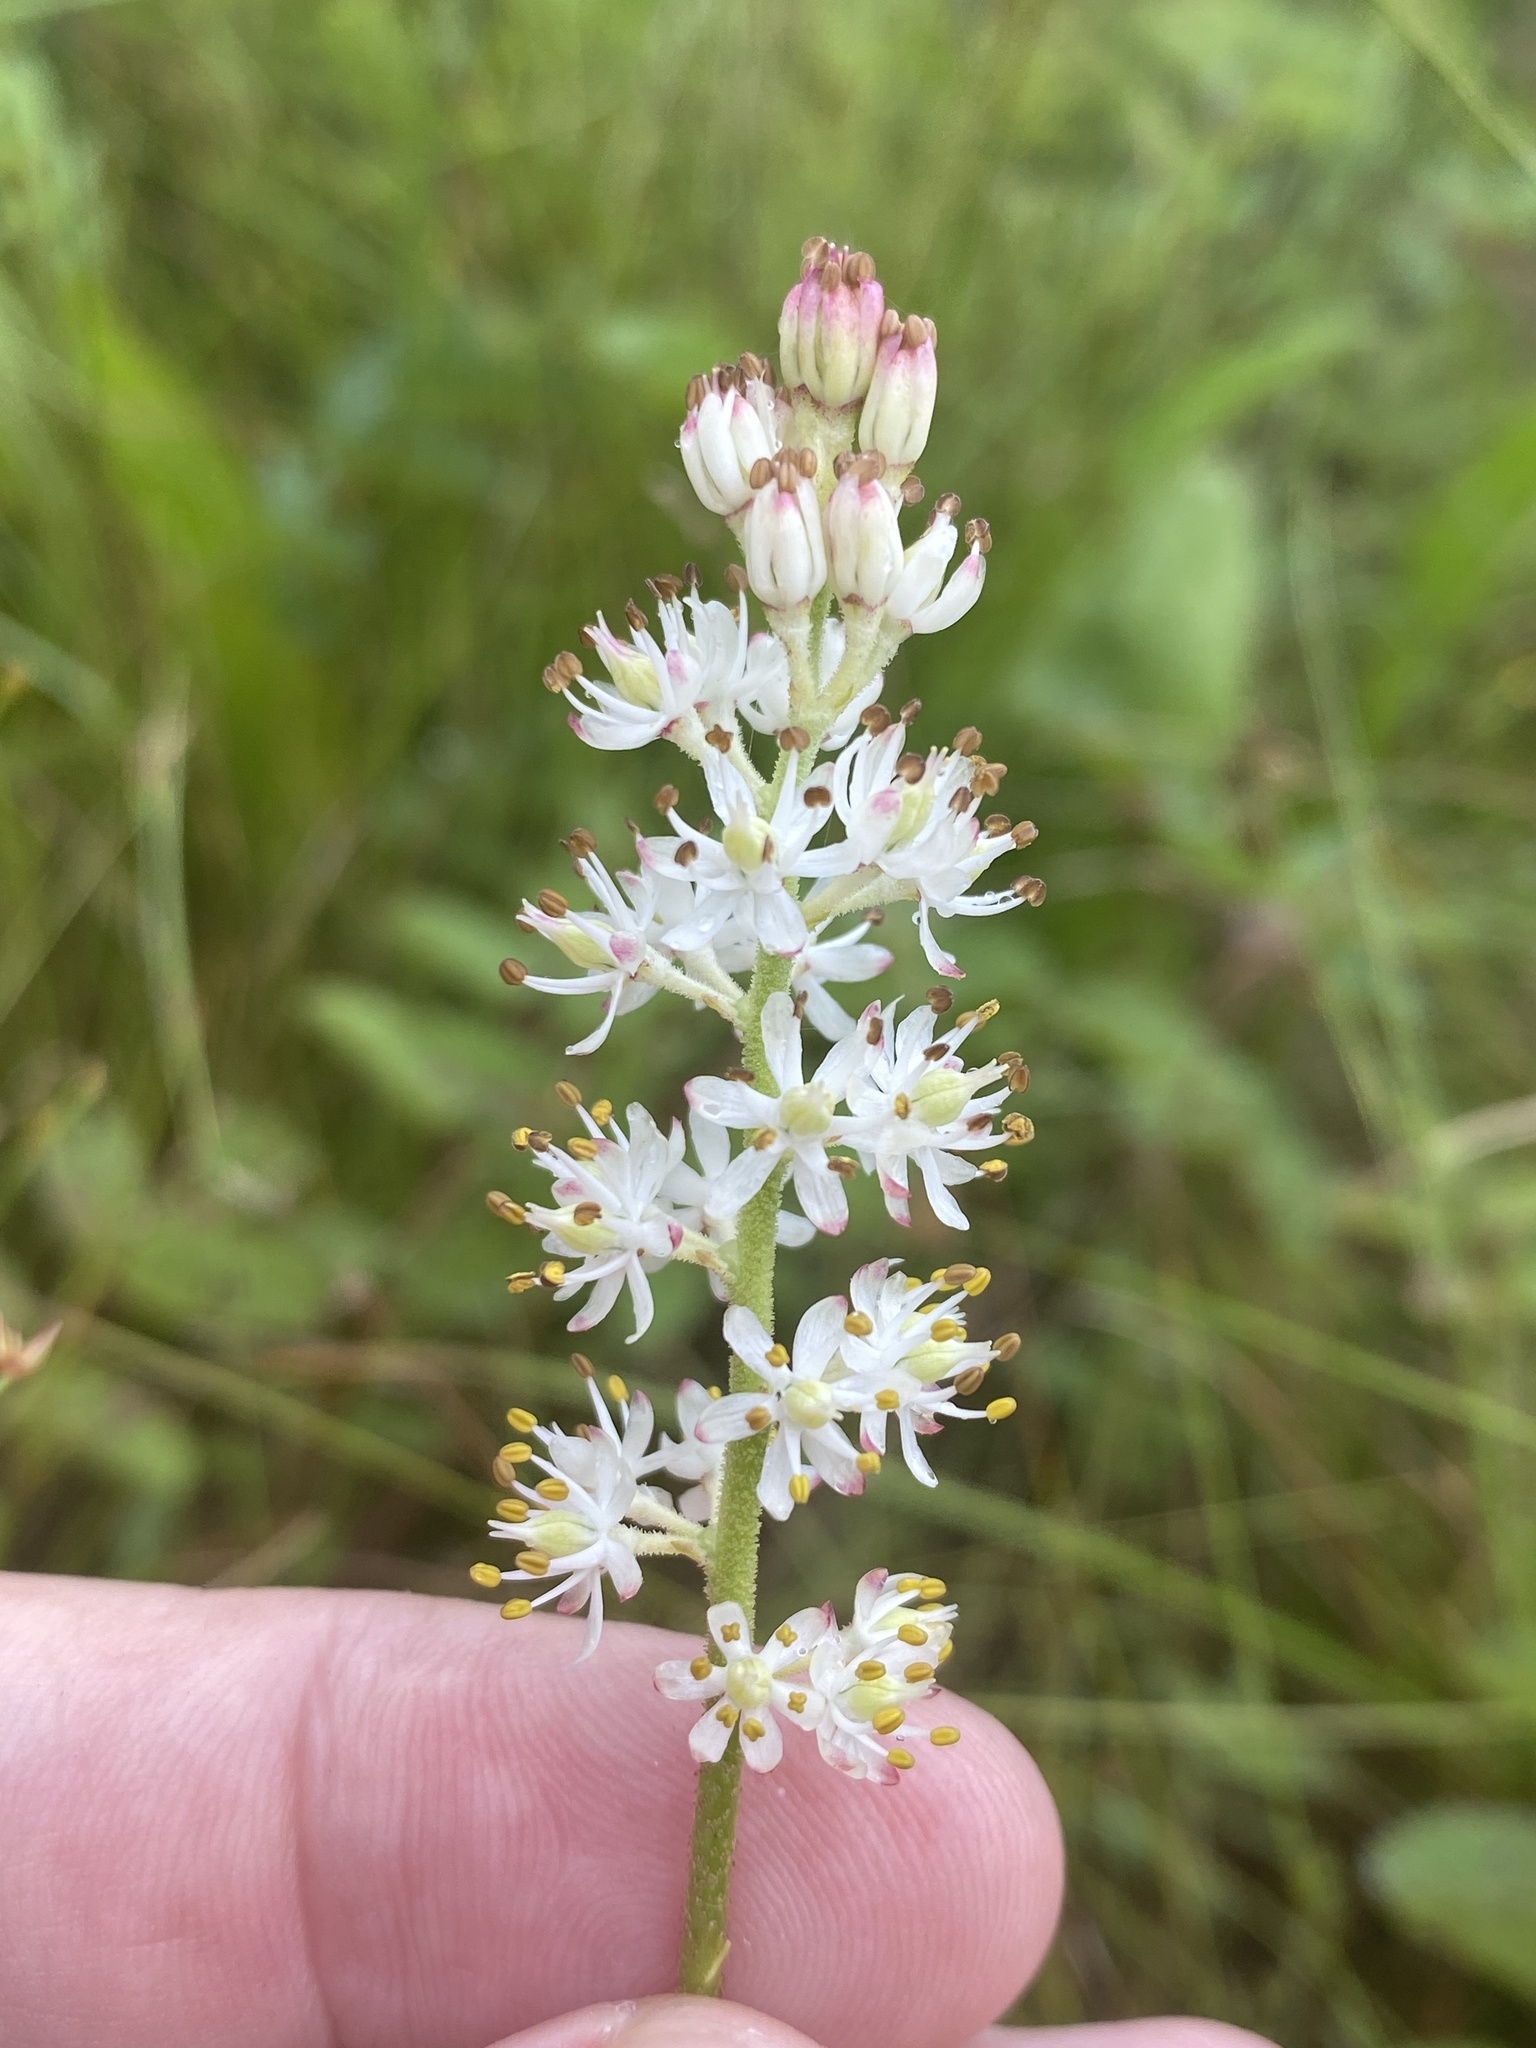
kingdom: Plantae
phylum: Tracheophyta
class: Liliopsida
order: Alismatales
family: Tofieldiaceae
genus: Triantha
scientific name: Triantha glutinosa
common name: Glutinous tofieldia
